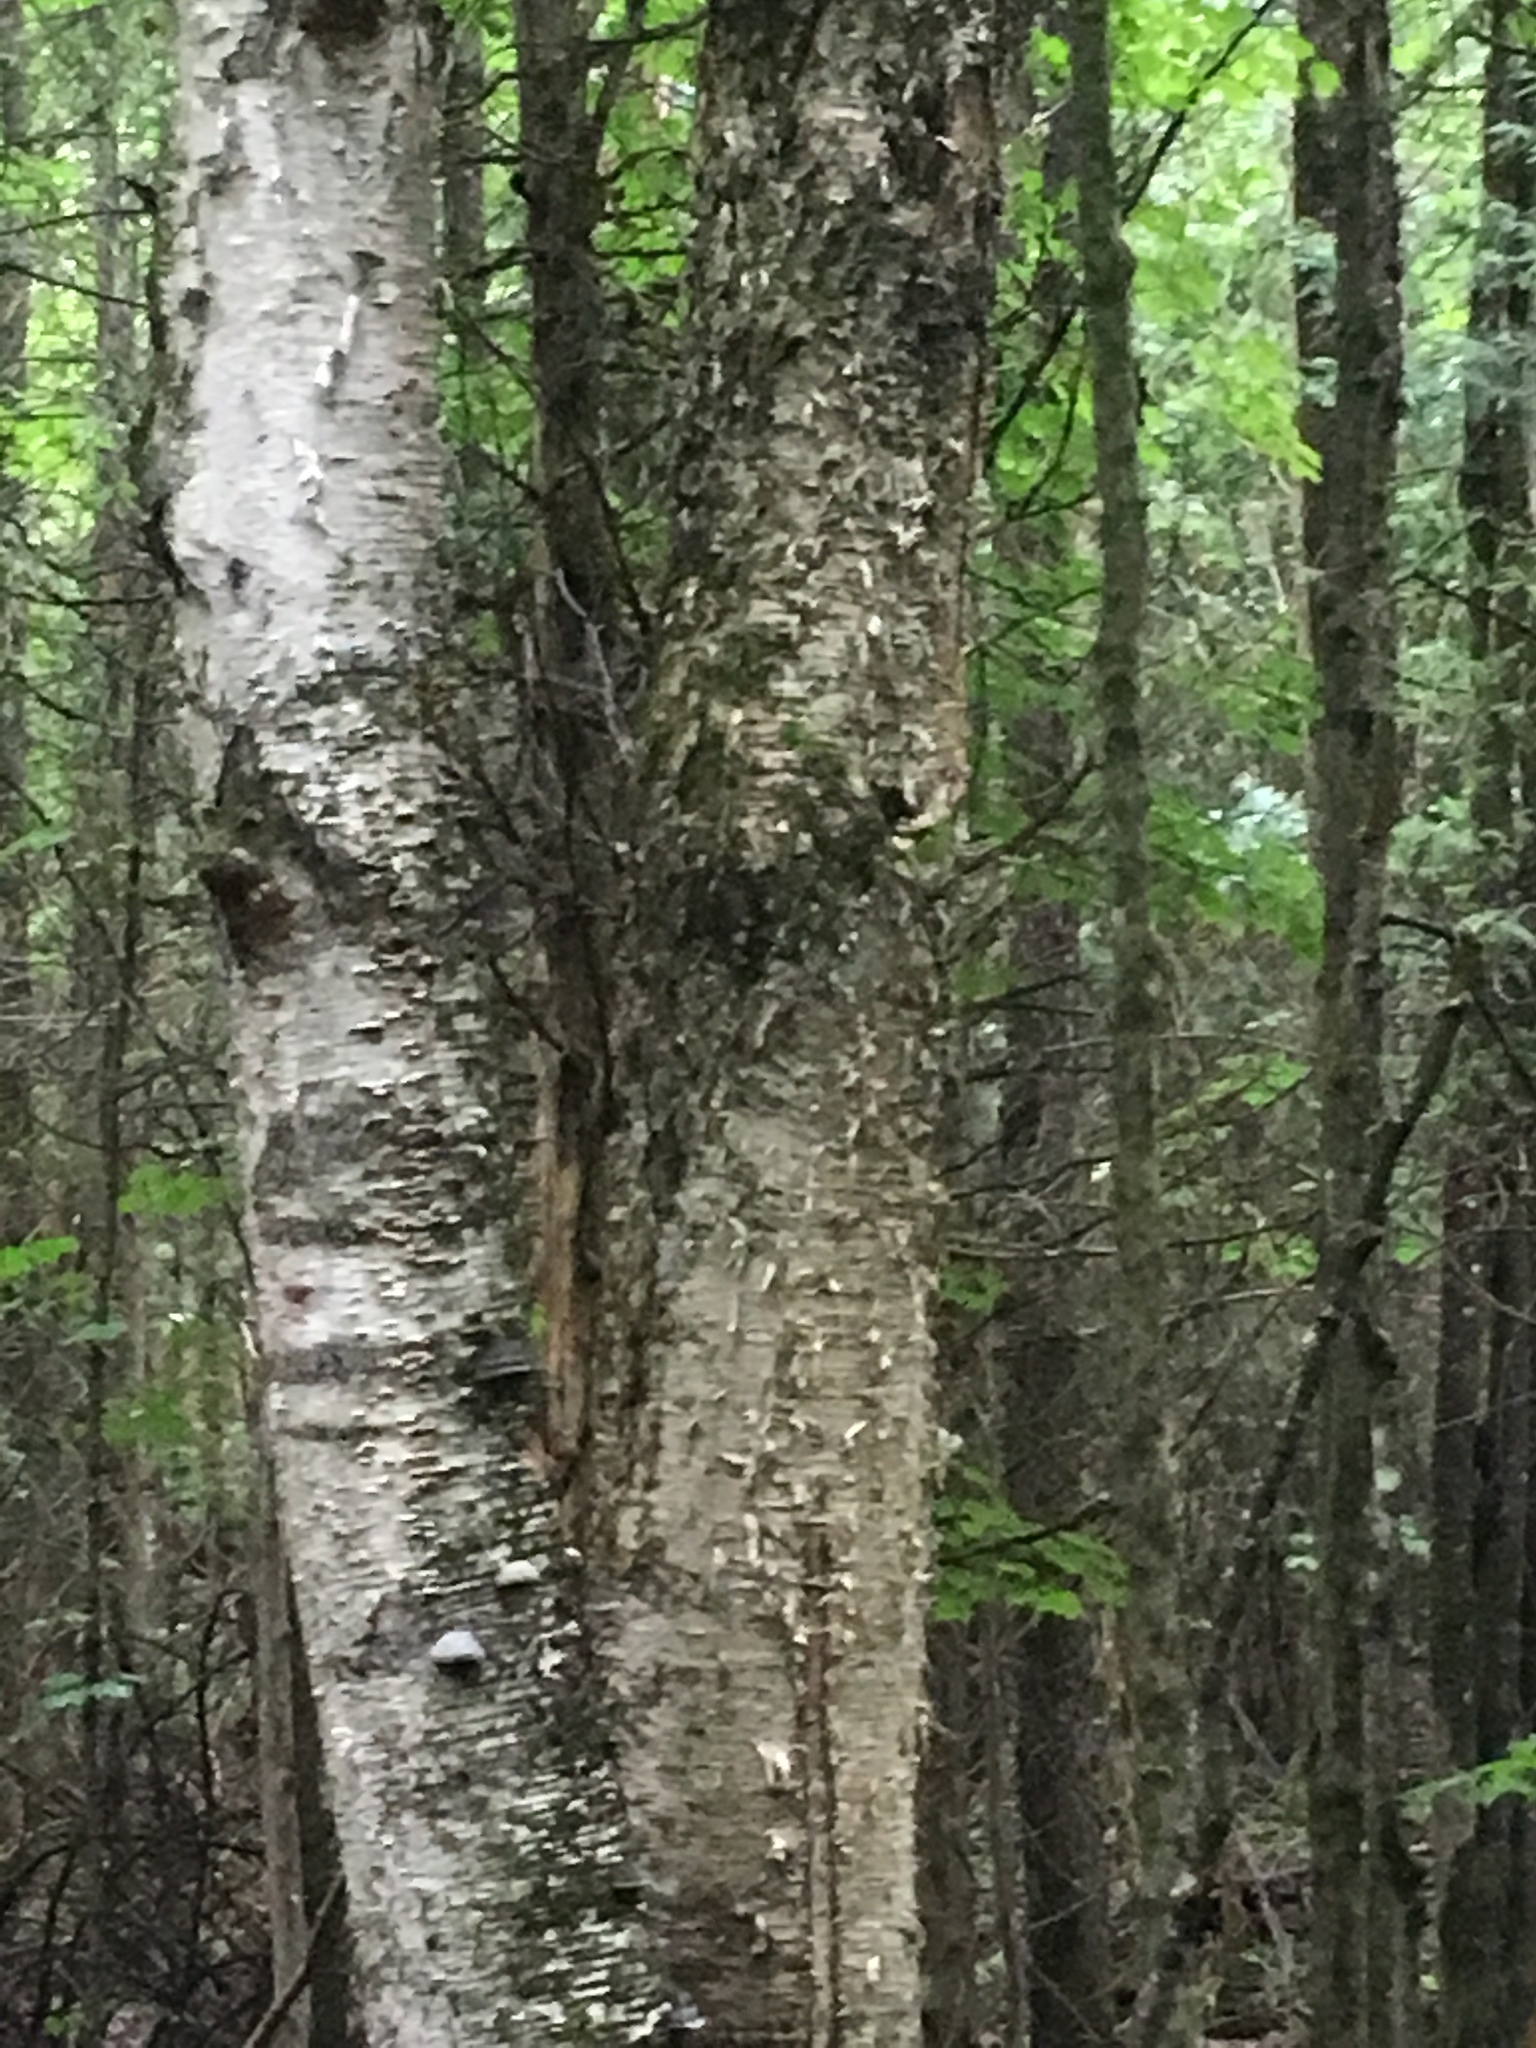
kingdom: Plantae
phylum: Tracheophyta
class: Magnoliopsida
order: Fagales
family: Betulaceae
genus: Betula
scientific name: Betula alleghaniensis
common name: Yellow birch
